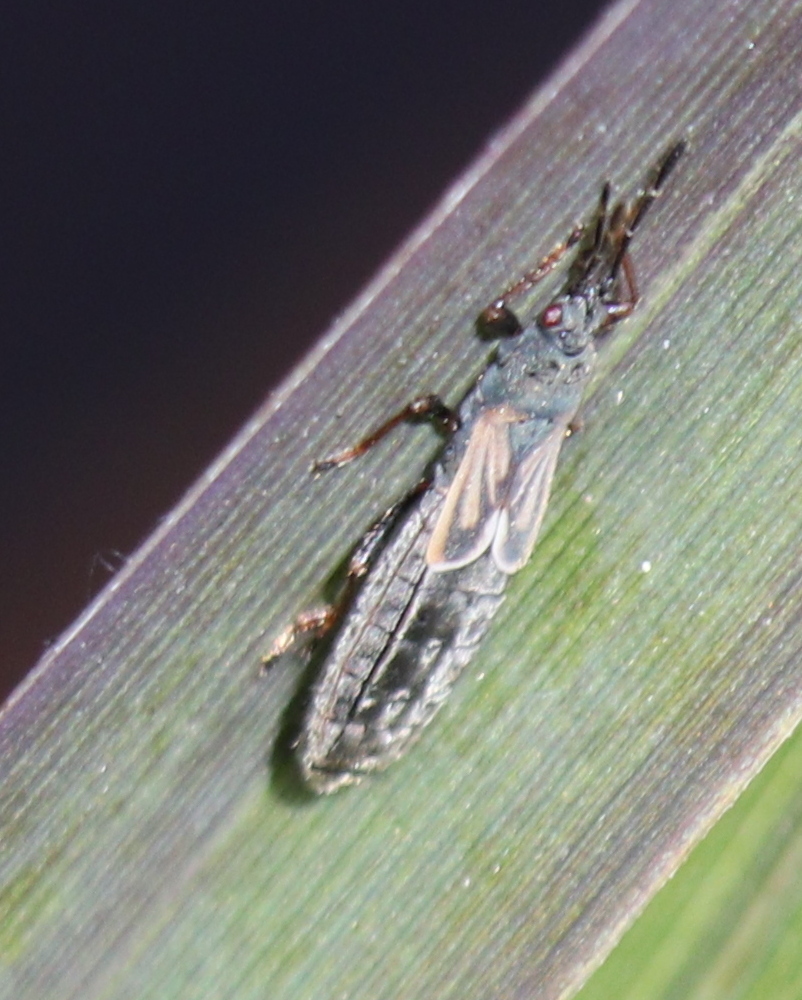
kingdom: Animalia
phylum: Arthropoda
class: Insecta
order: Hemiptera
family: Blissidae
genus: Ischnodemus
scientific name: Ischnodemus sabuleti
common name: European cinchbug
